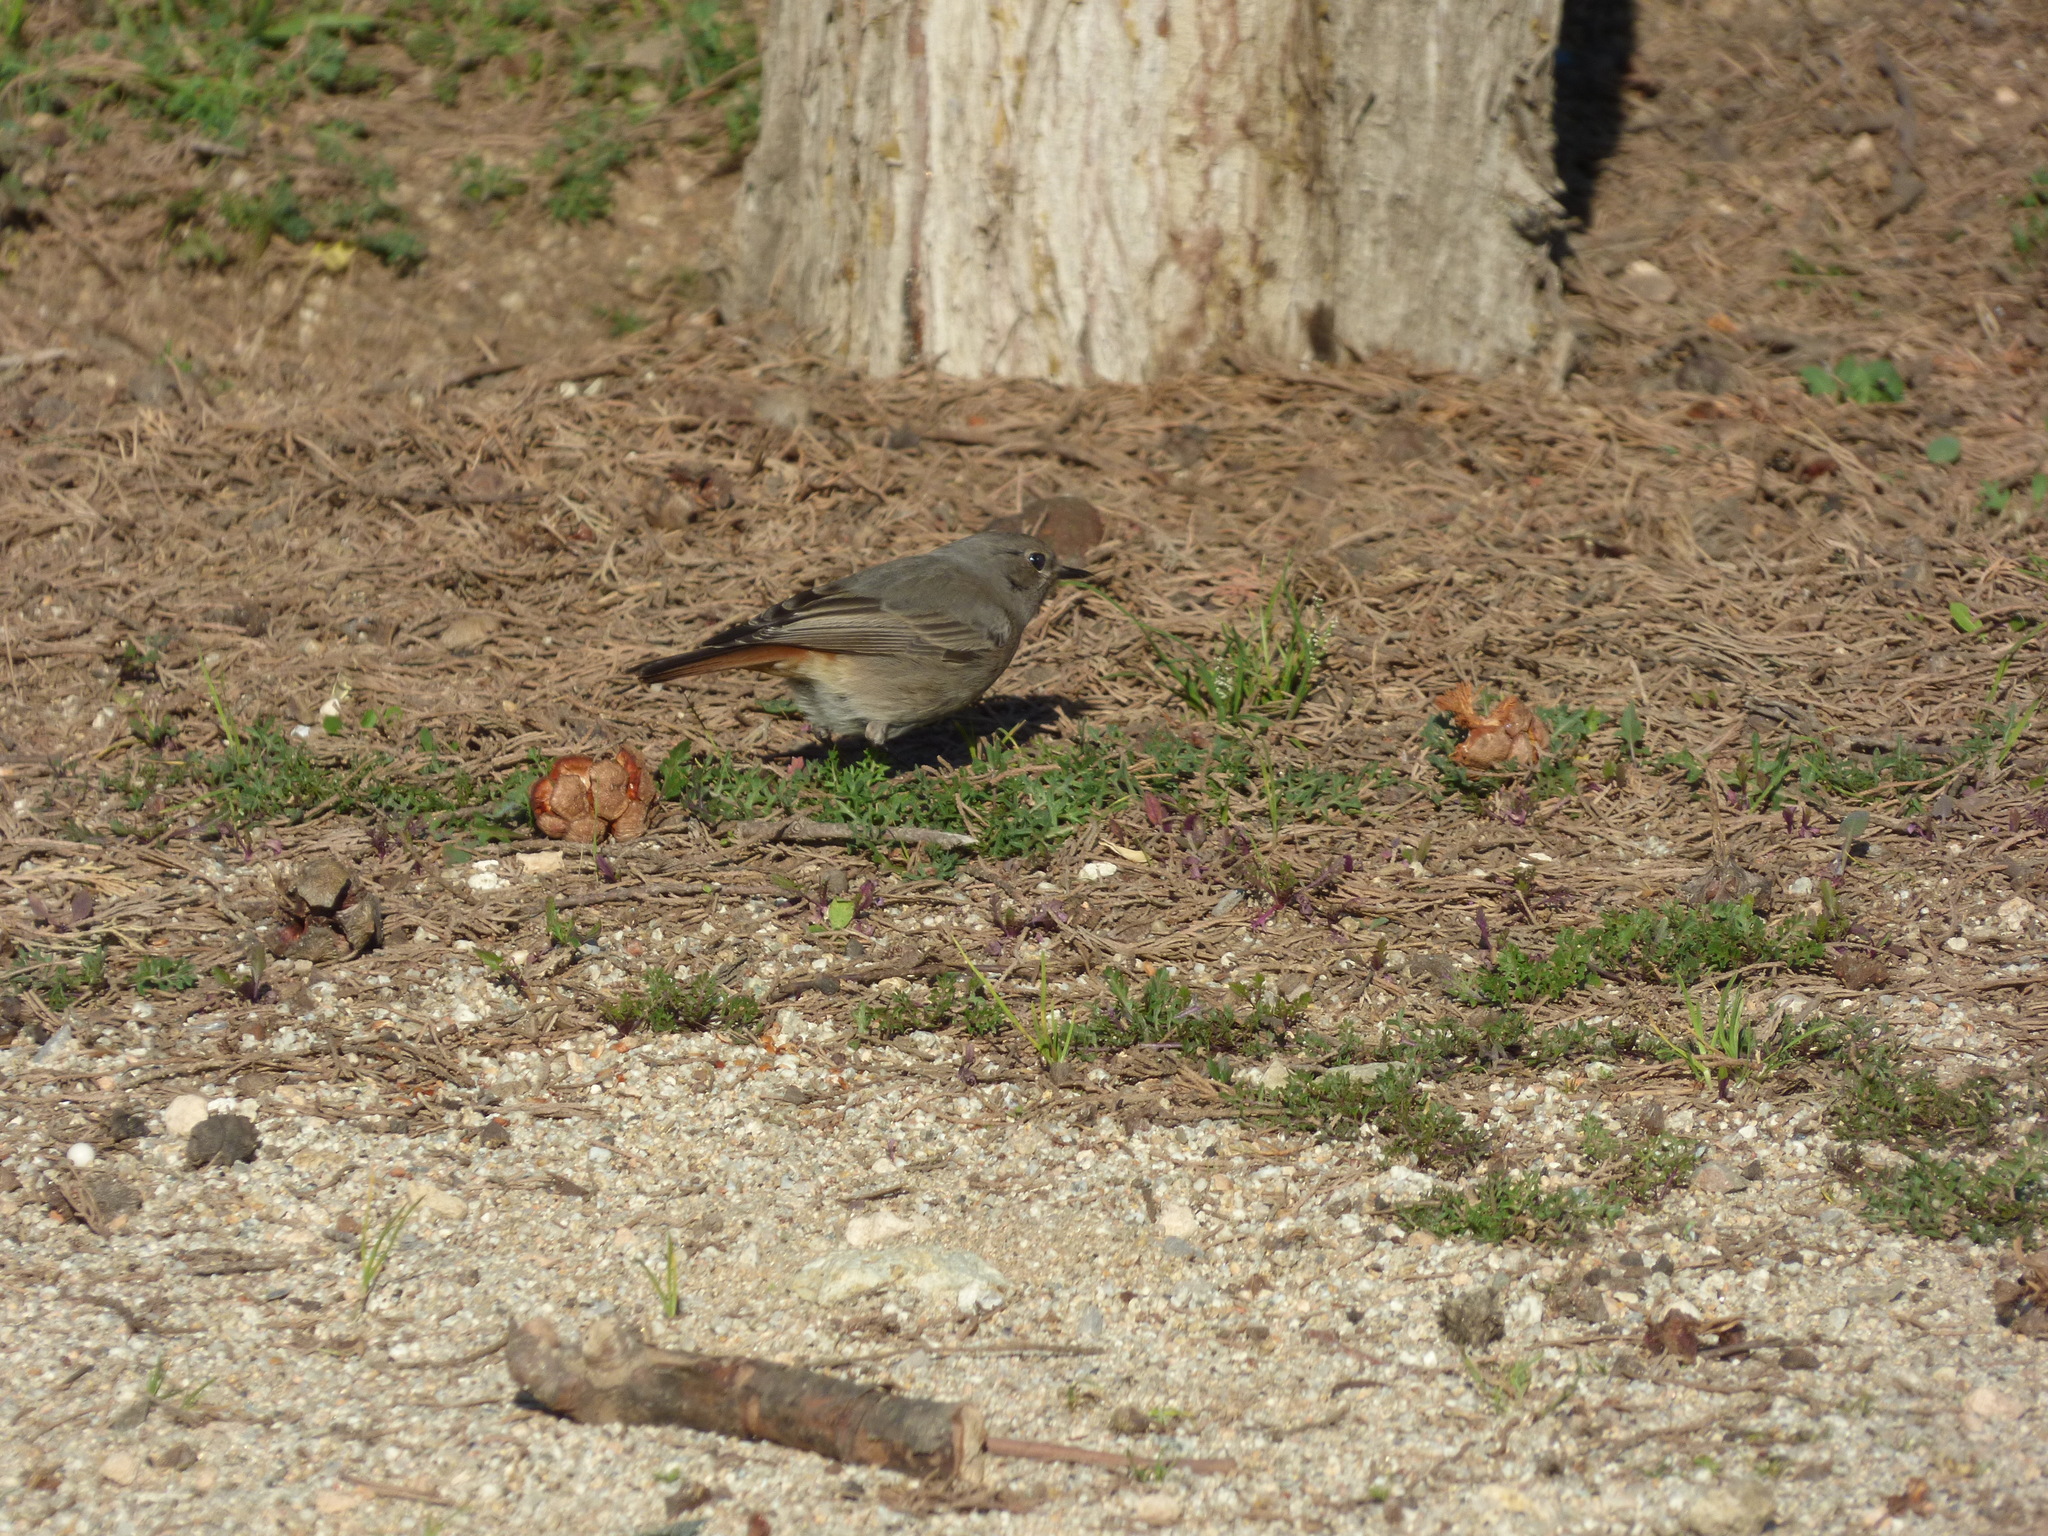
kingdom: Animalia
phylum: Chordata
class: Aves
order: Passeriformes
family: Muscicapidae
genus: Phoenicurus
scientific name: Phoenicurus ochruros
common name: Black redstart
